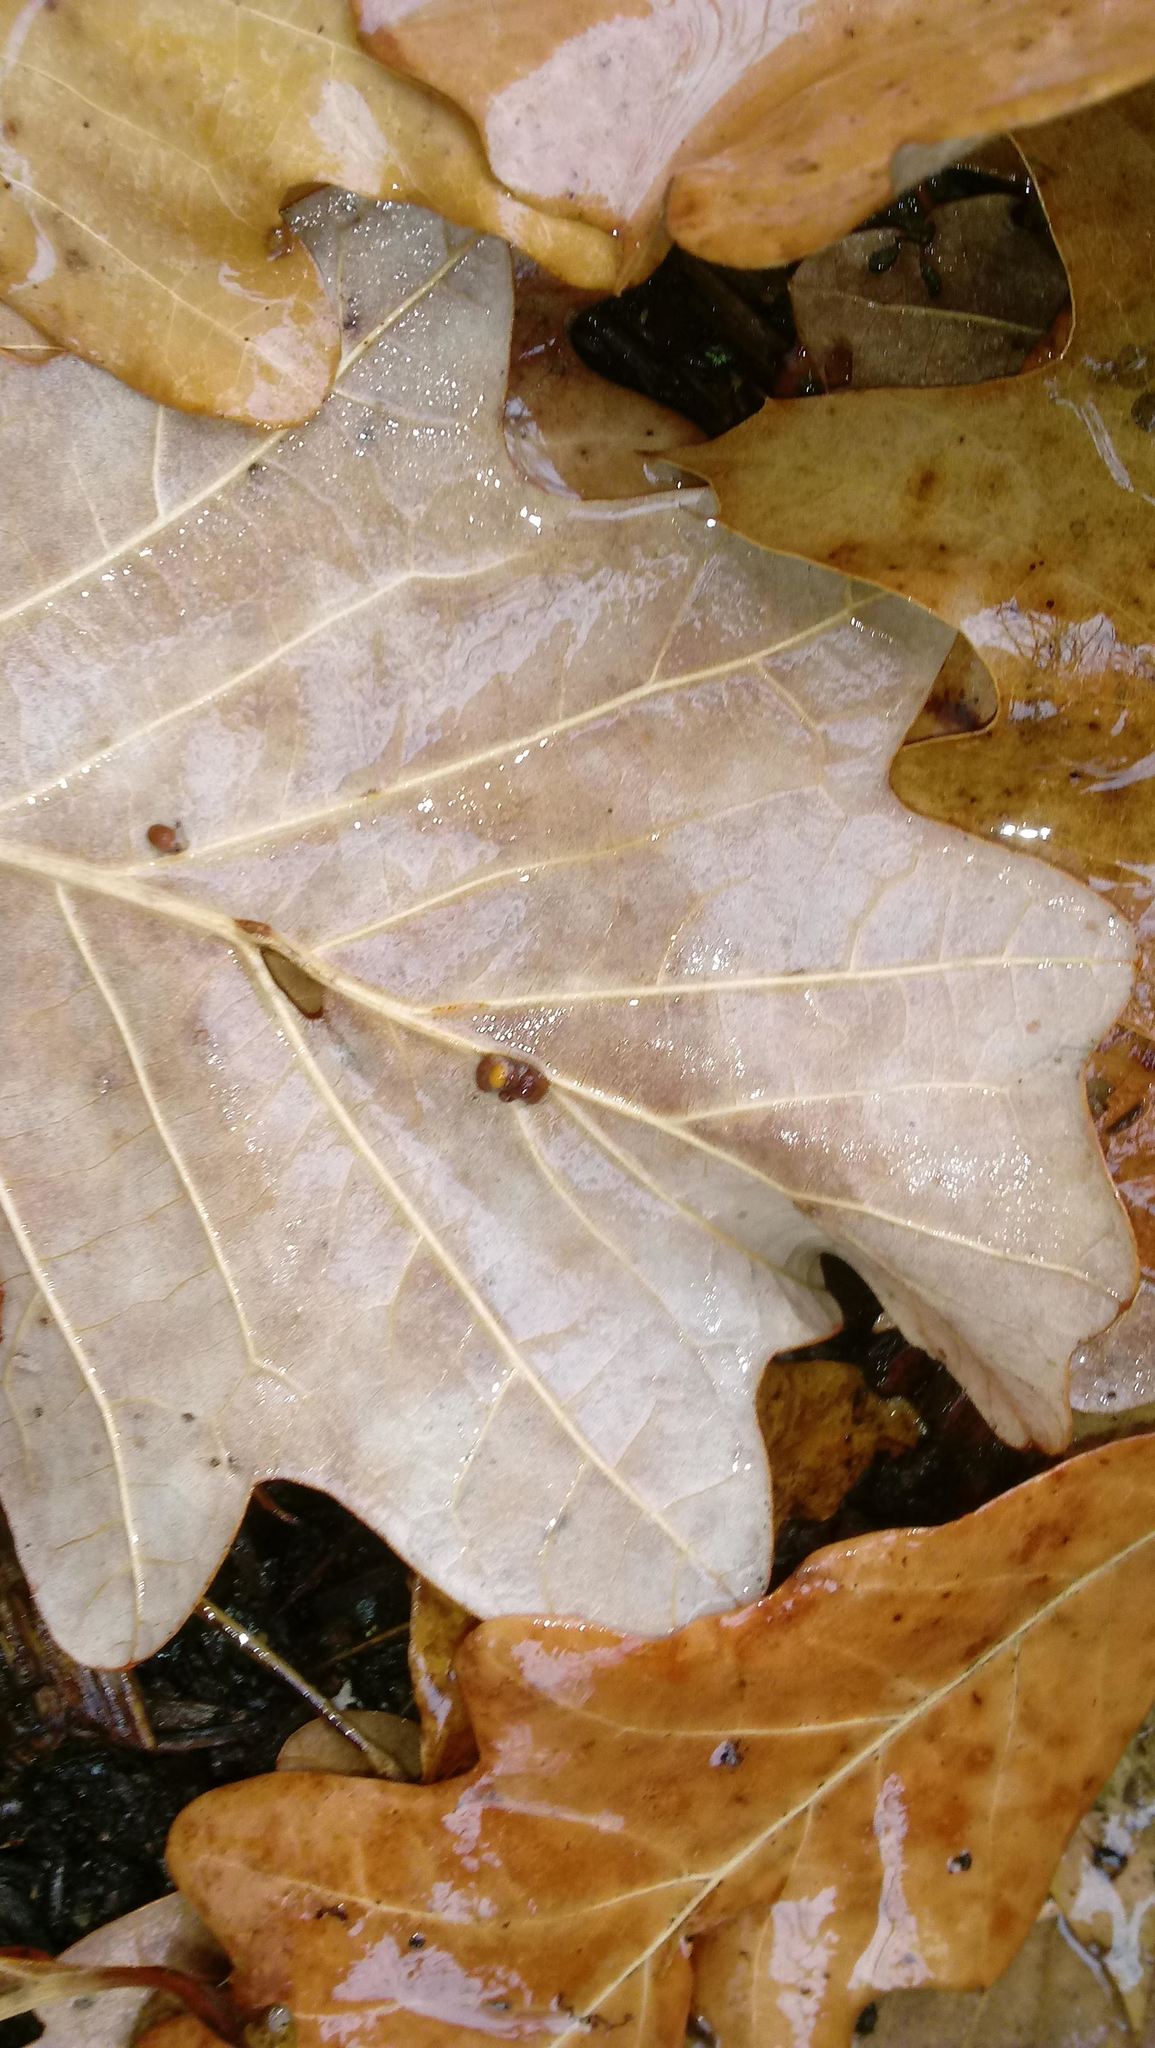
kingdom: Animalia
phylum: Arthropoda
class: Insecta
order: Hymenoptera
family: Cynipidae
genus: Andricus
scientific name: Andricus Druon ignotum
